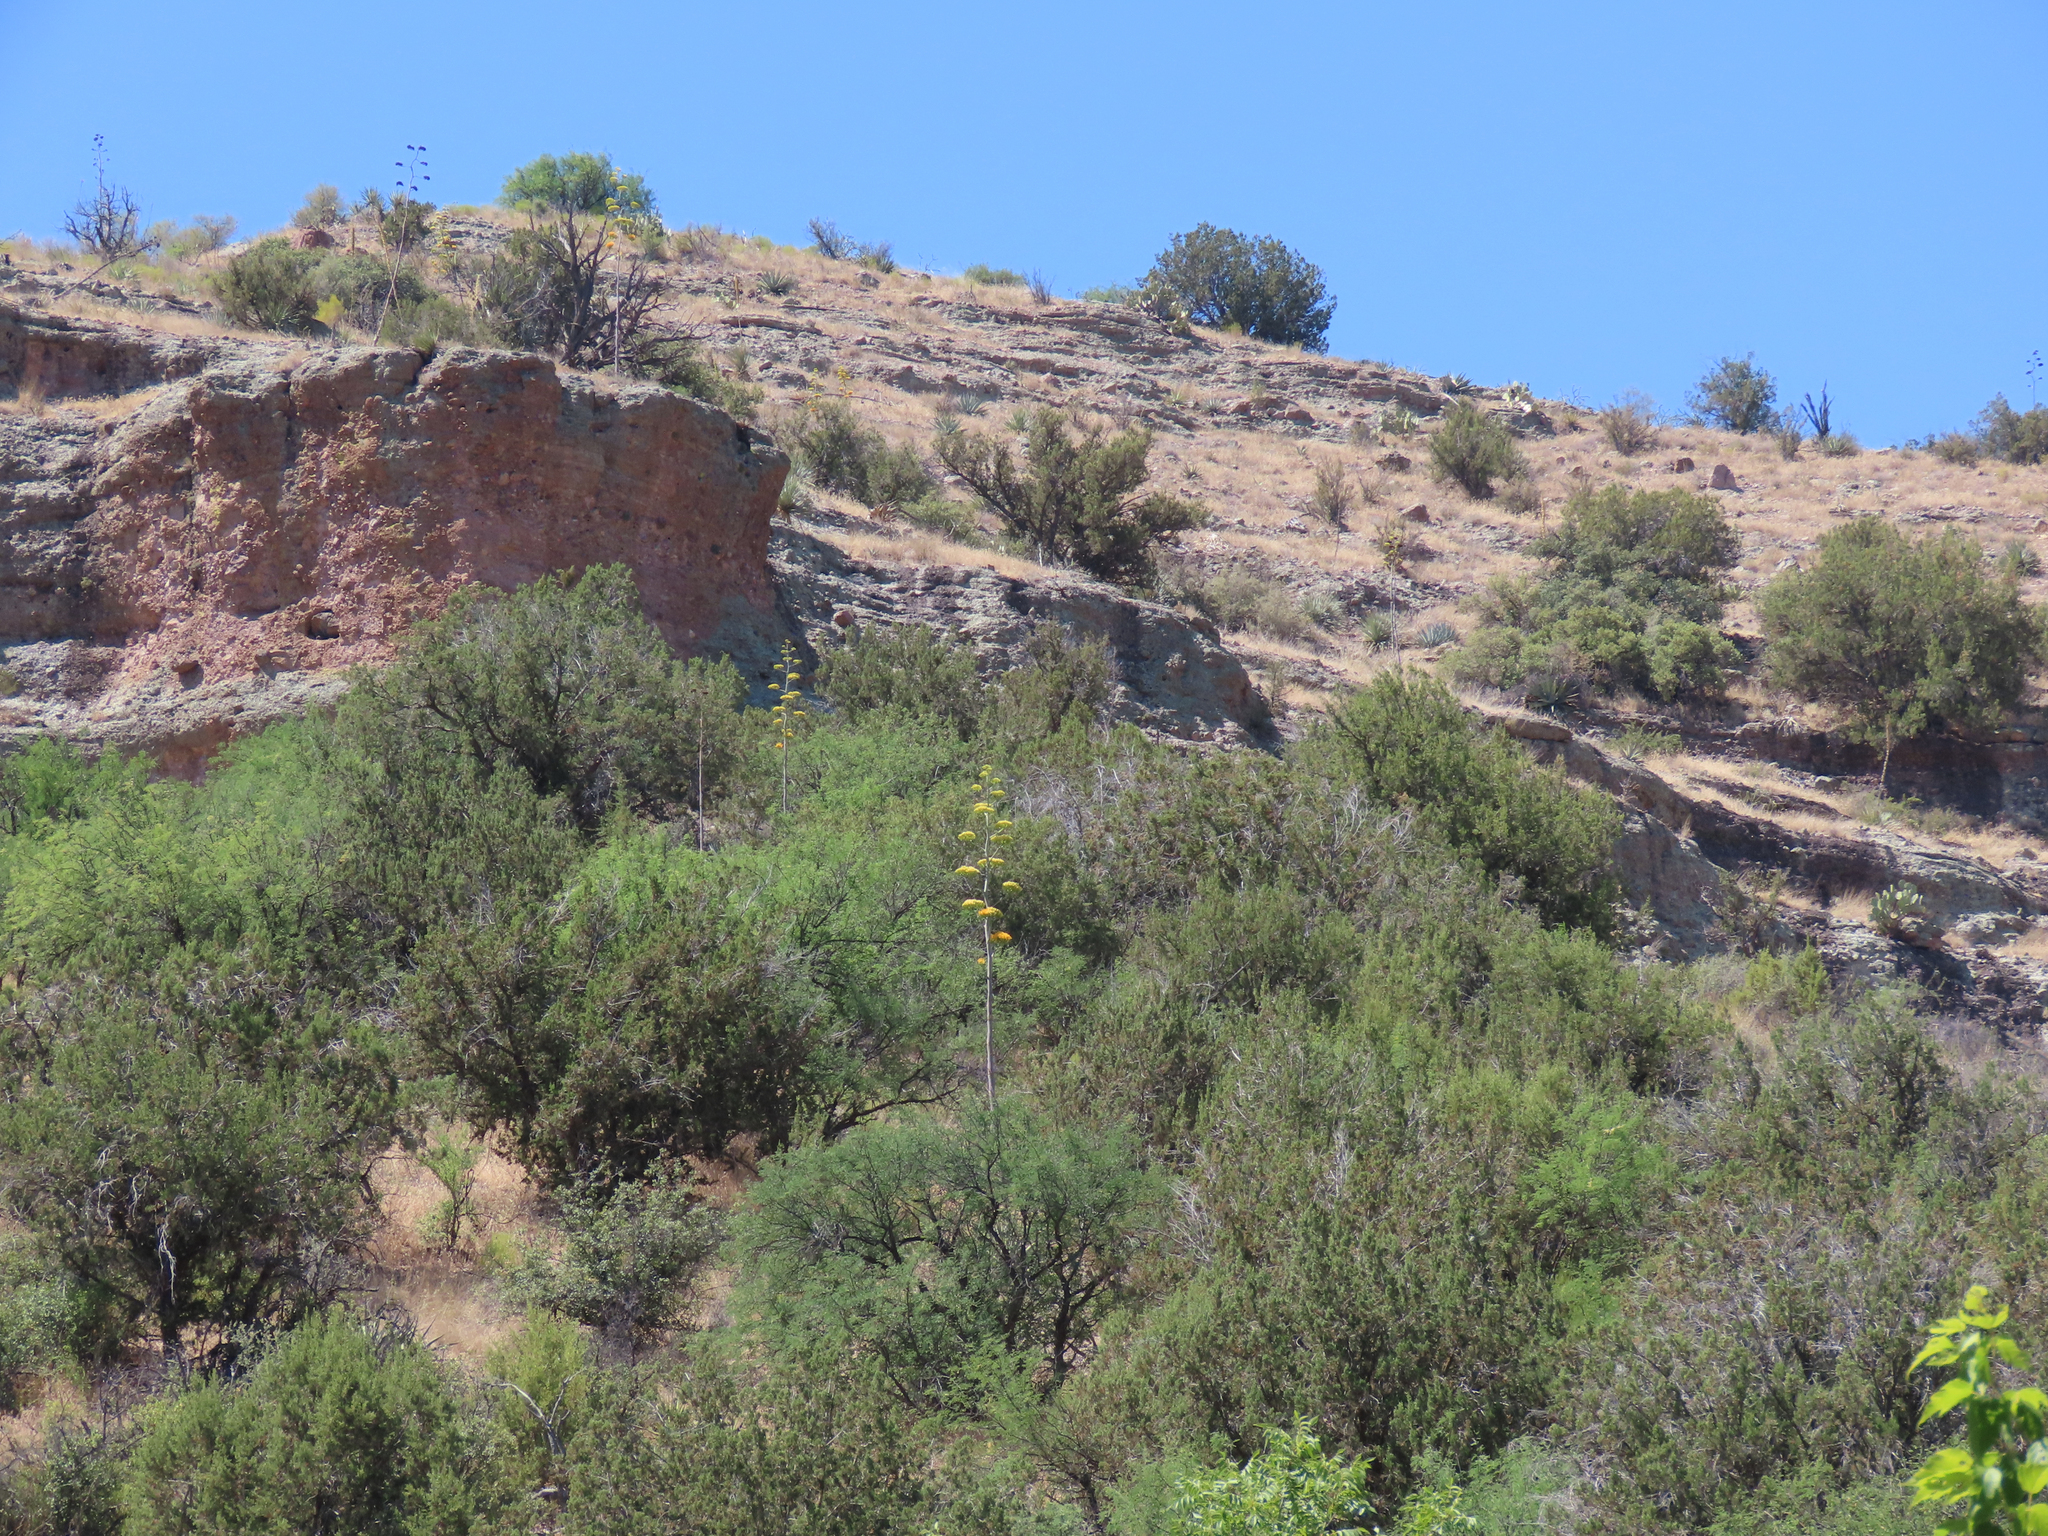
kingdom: Plantae
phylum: Tracheophyta
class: Liliopsida
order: Asparagales
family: Asparagaceae
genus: Agave
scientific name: Agave chrysantha
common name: Golden-flowered agave
